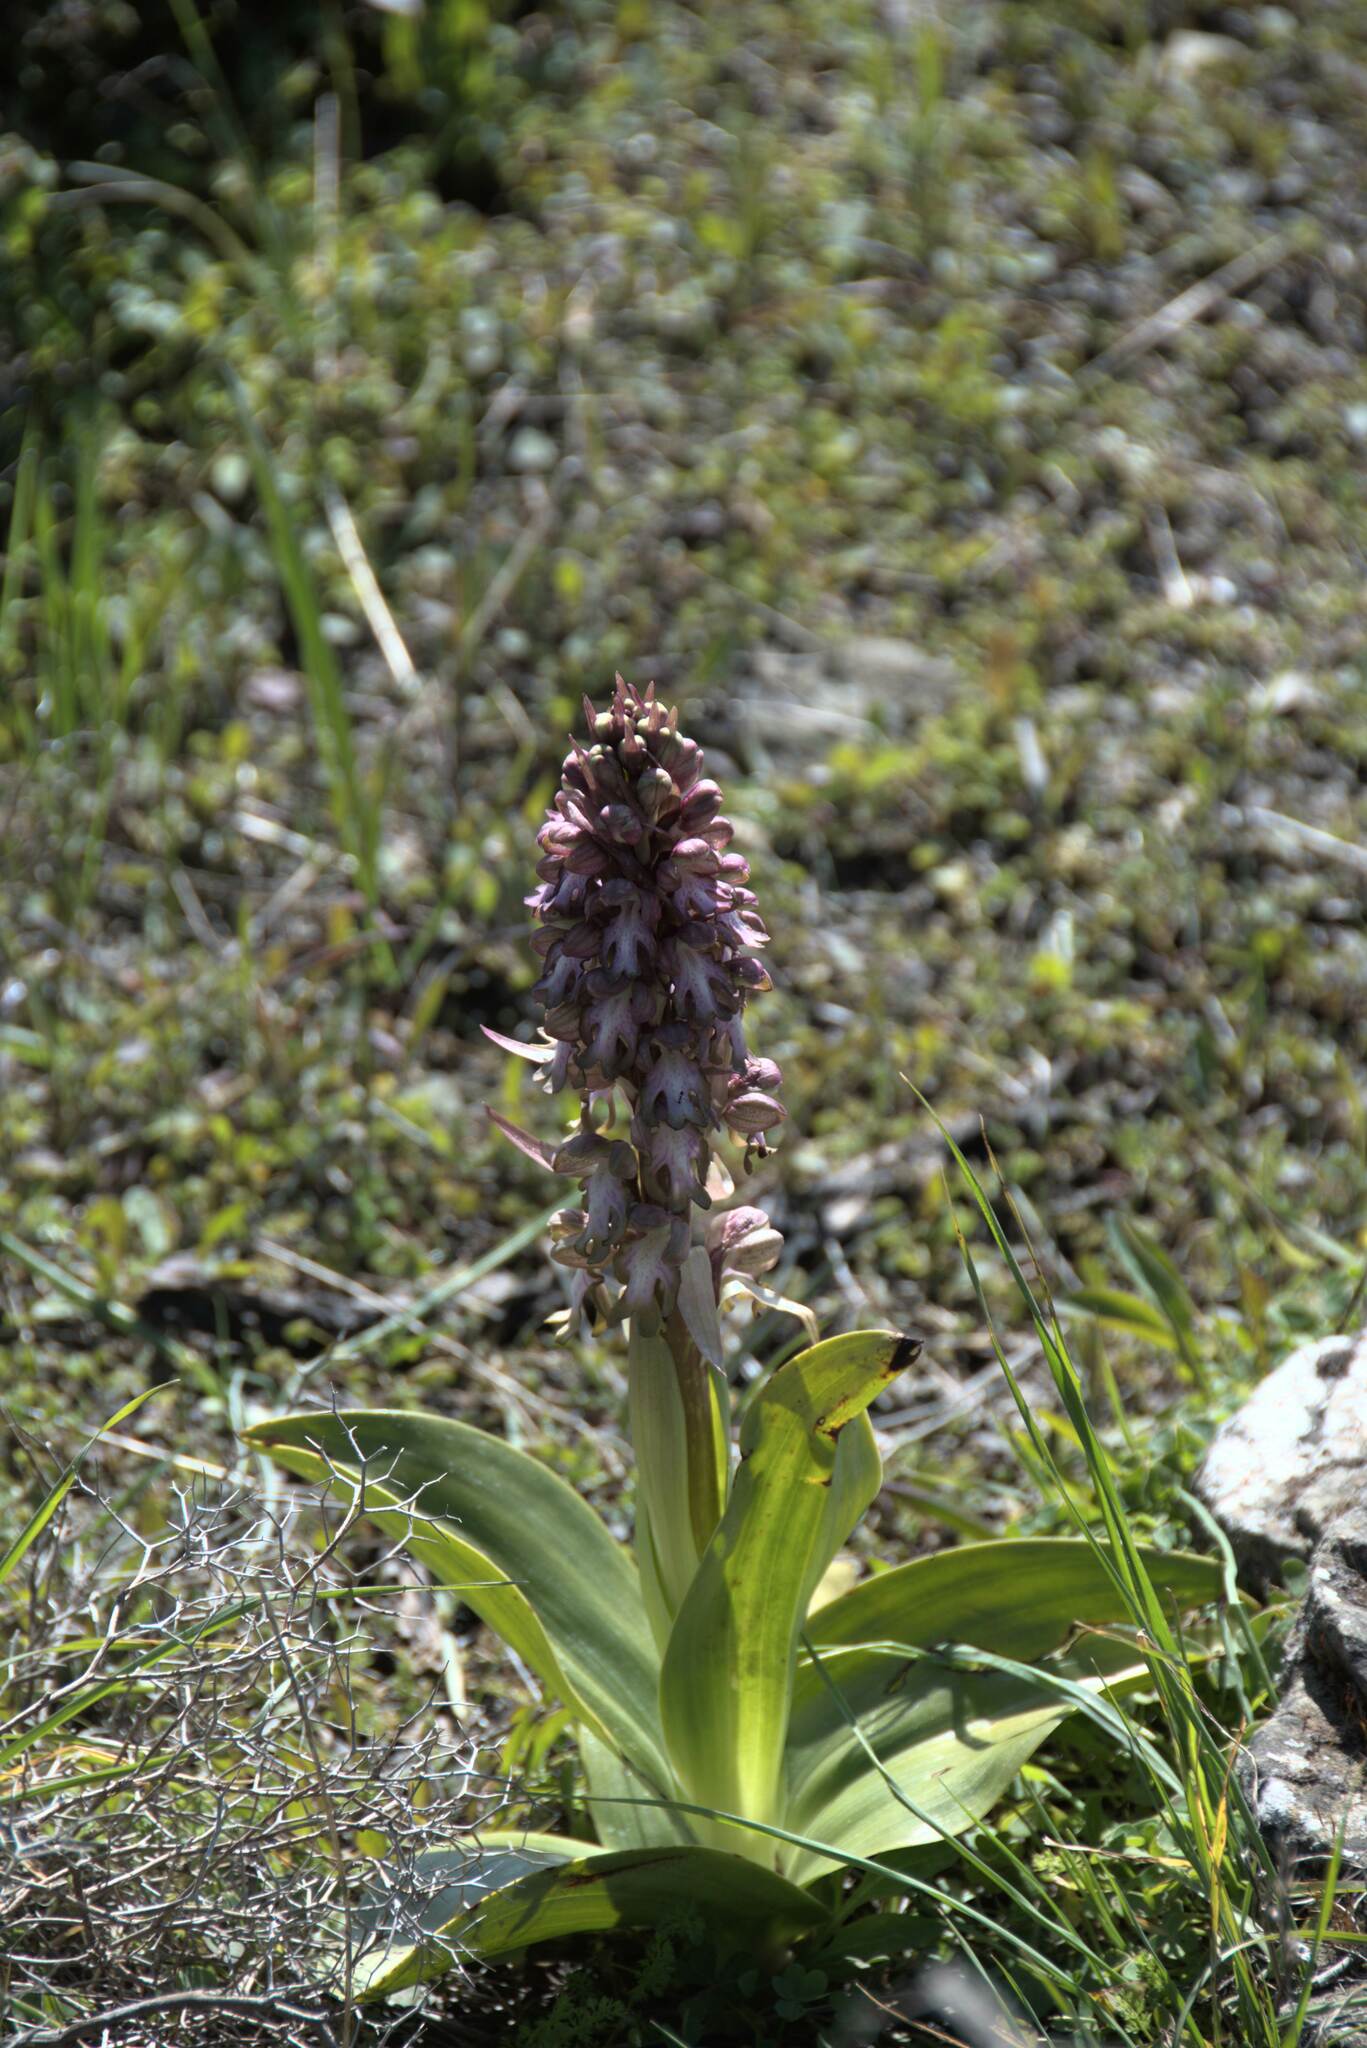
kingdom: Plantae
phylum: Tracheophyta
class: Liliopsida
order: Asparagales
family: Orchidaceae
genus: Himantoglossum
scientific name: Himantoglossum robertianum
